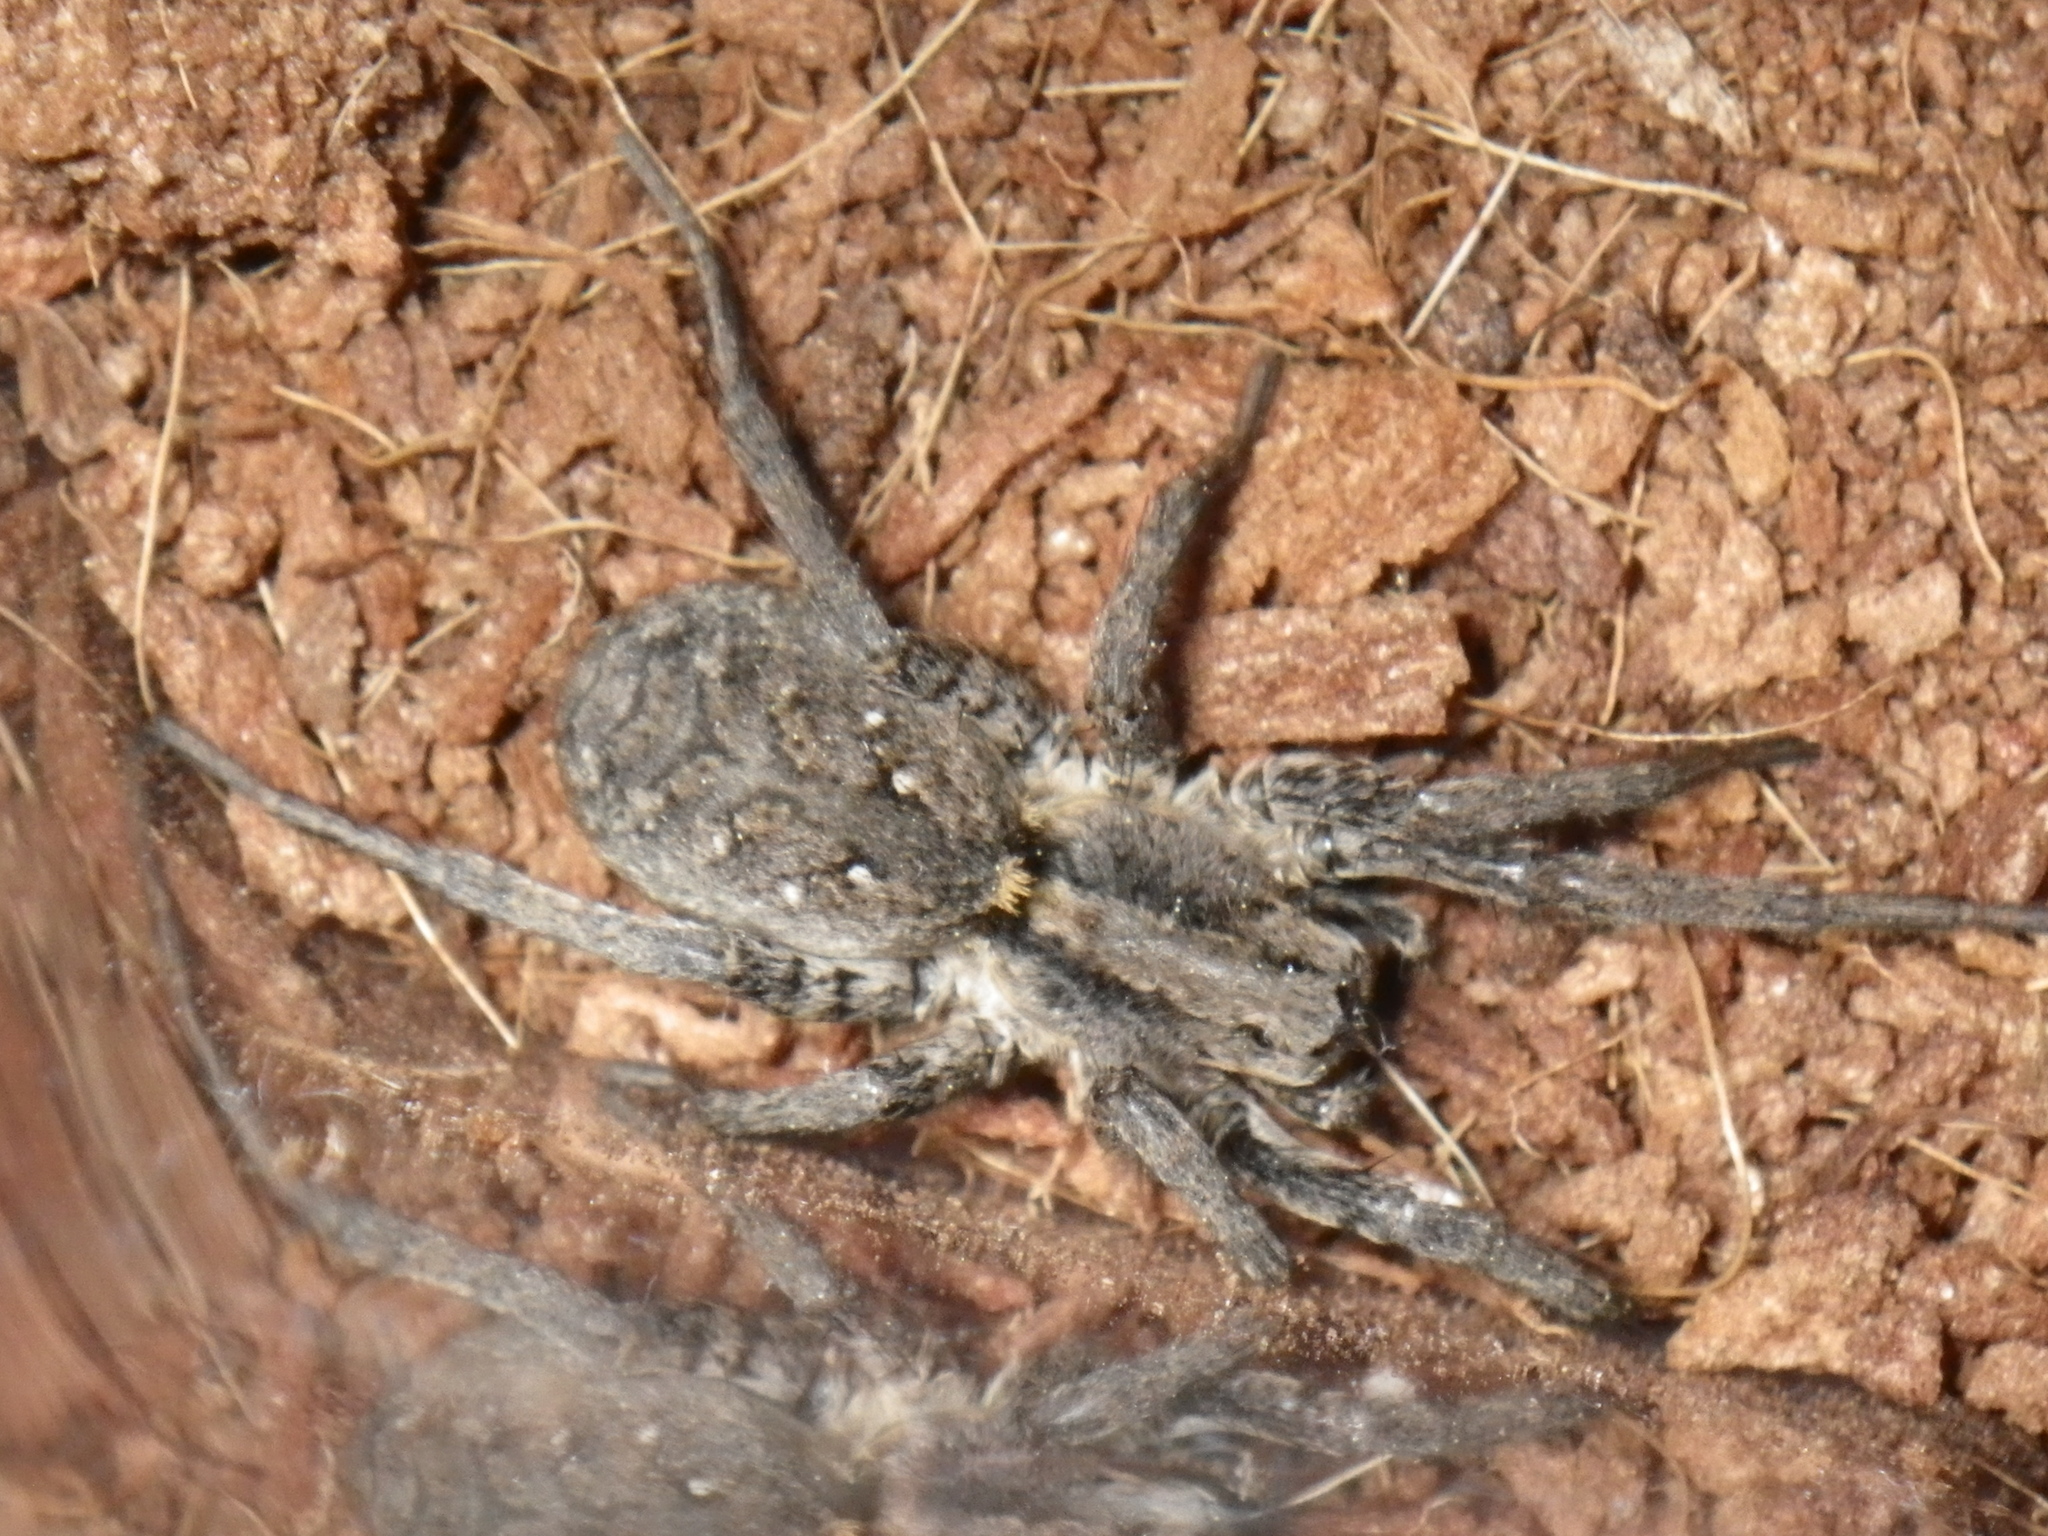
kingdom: Animalia
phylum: Arthropoda
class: Arachnida
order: Araneae
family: Lycosidae
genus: Alopecosa
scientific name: Alopecosa kochi
